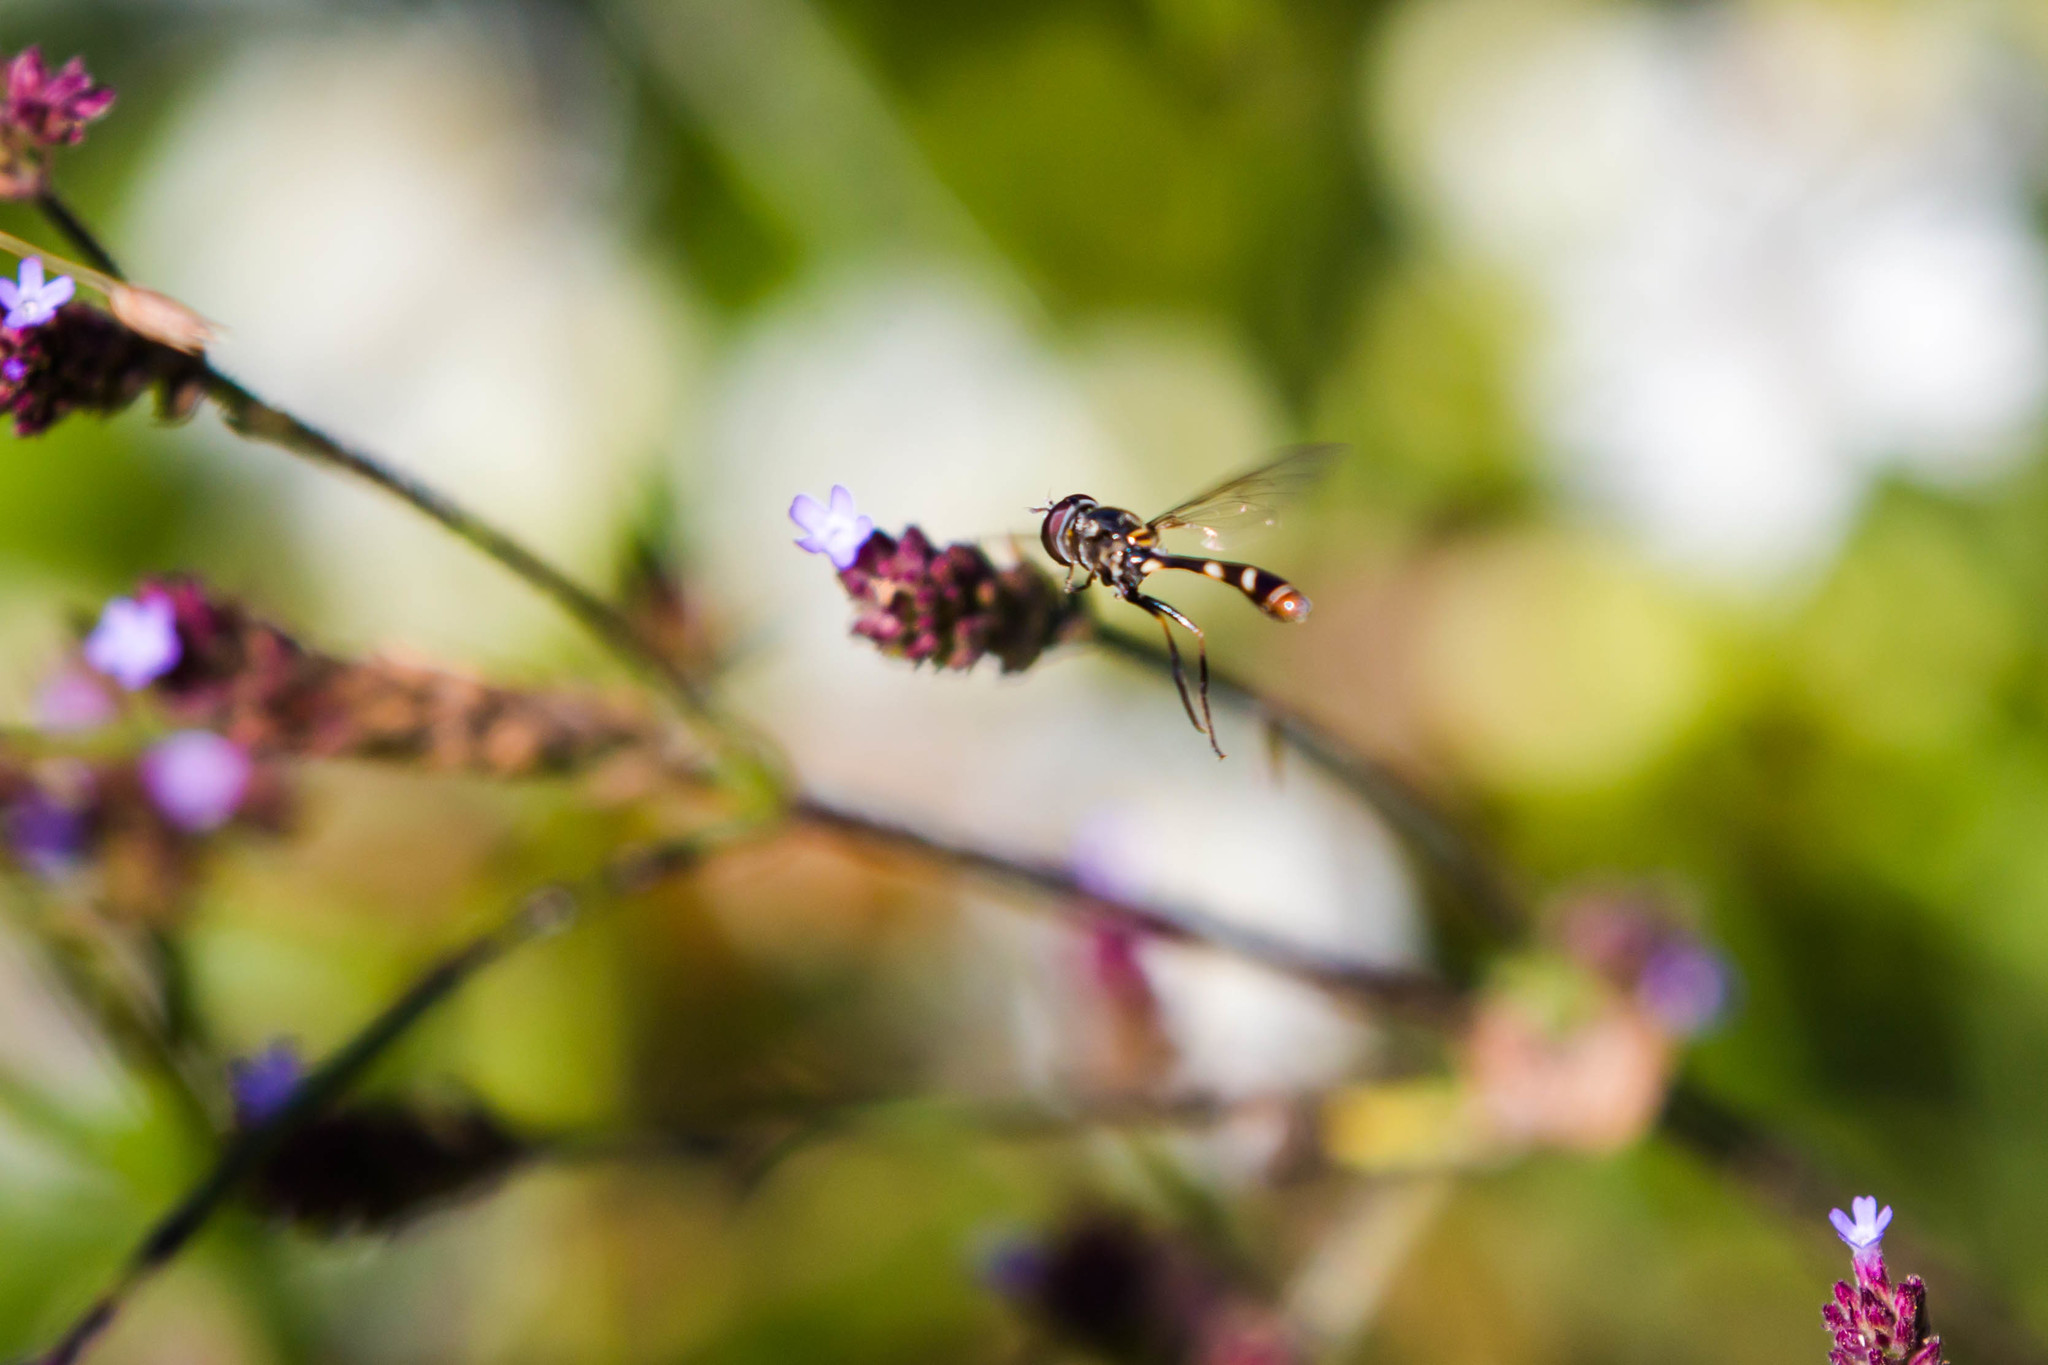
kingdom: Animalia
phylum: Arthropoda
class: Insecta
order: Diptera
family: Syrphidae
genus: Dioprosopa
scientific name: Dioprosopa clavatus
